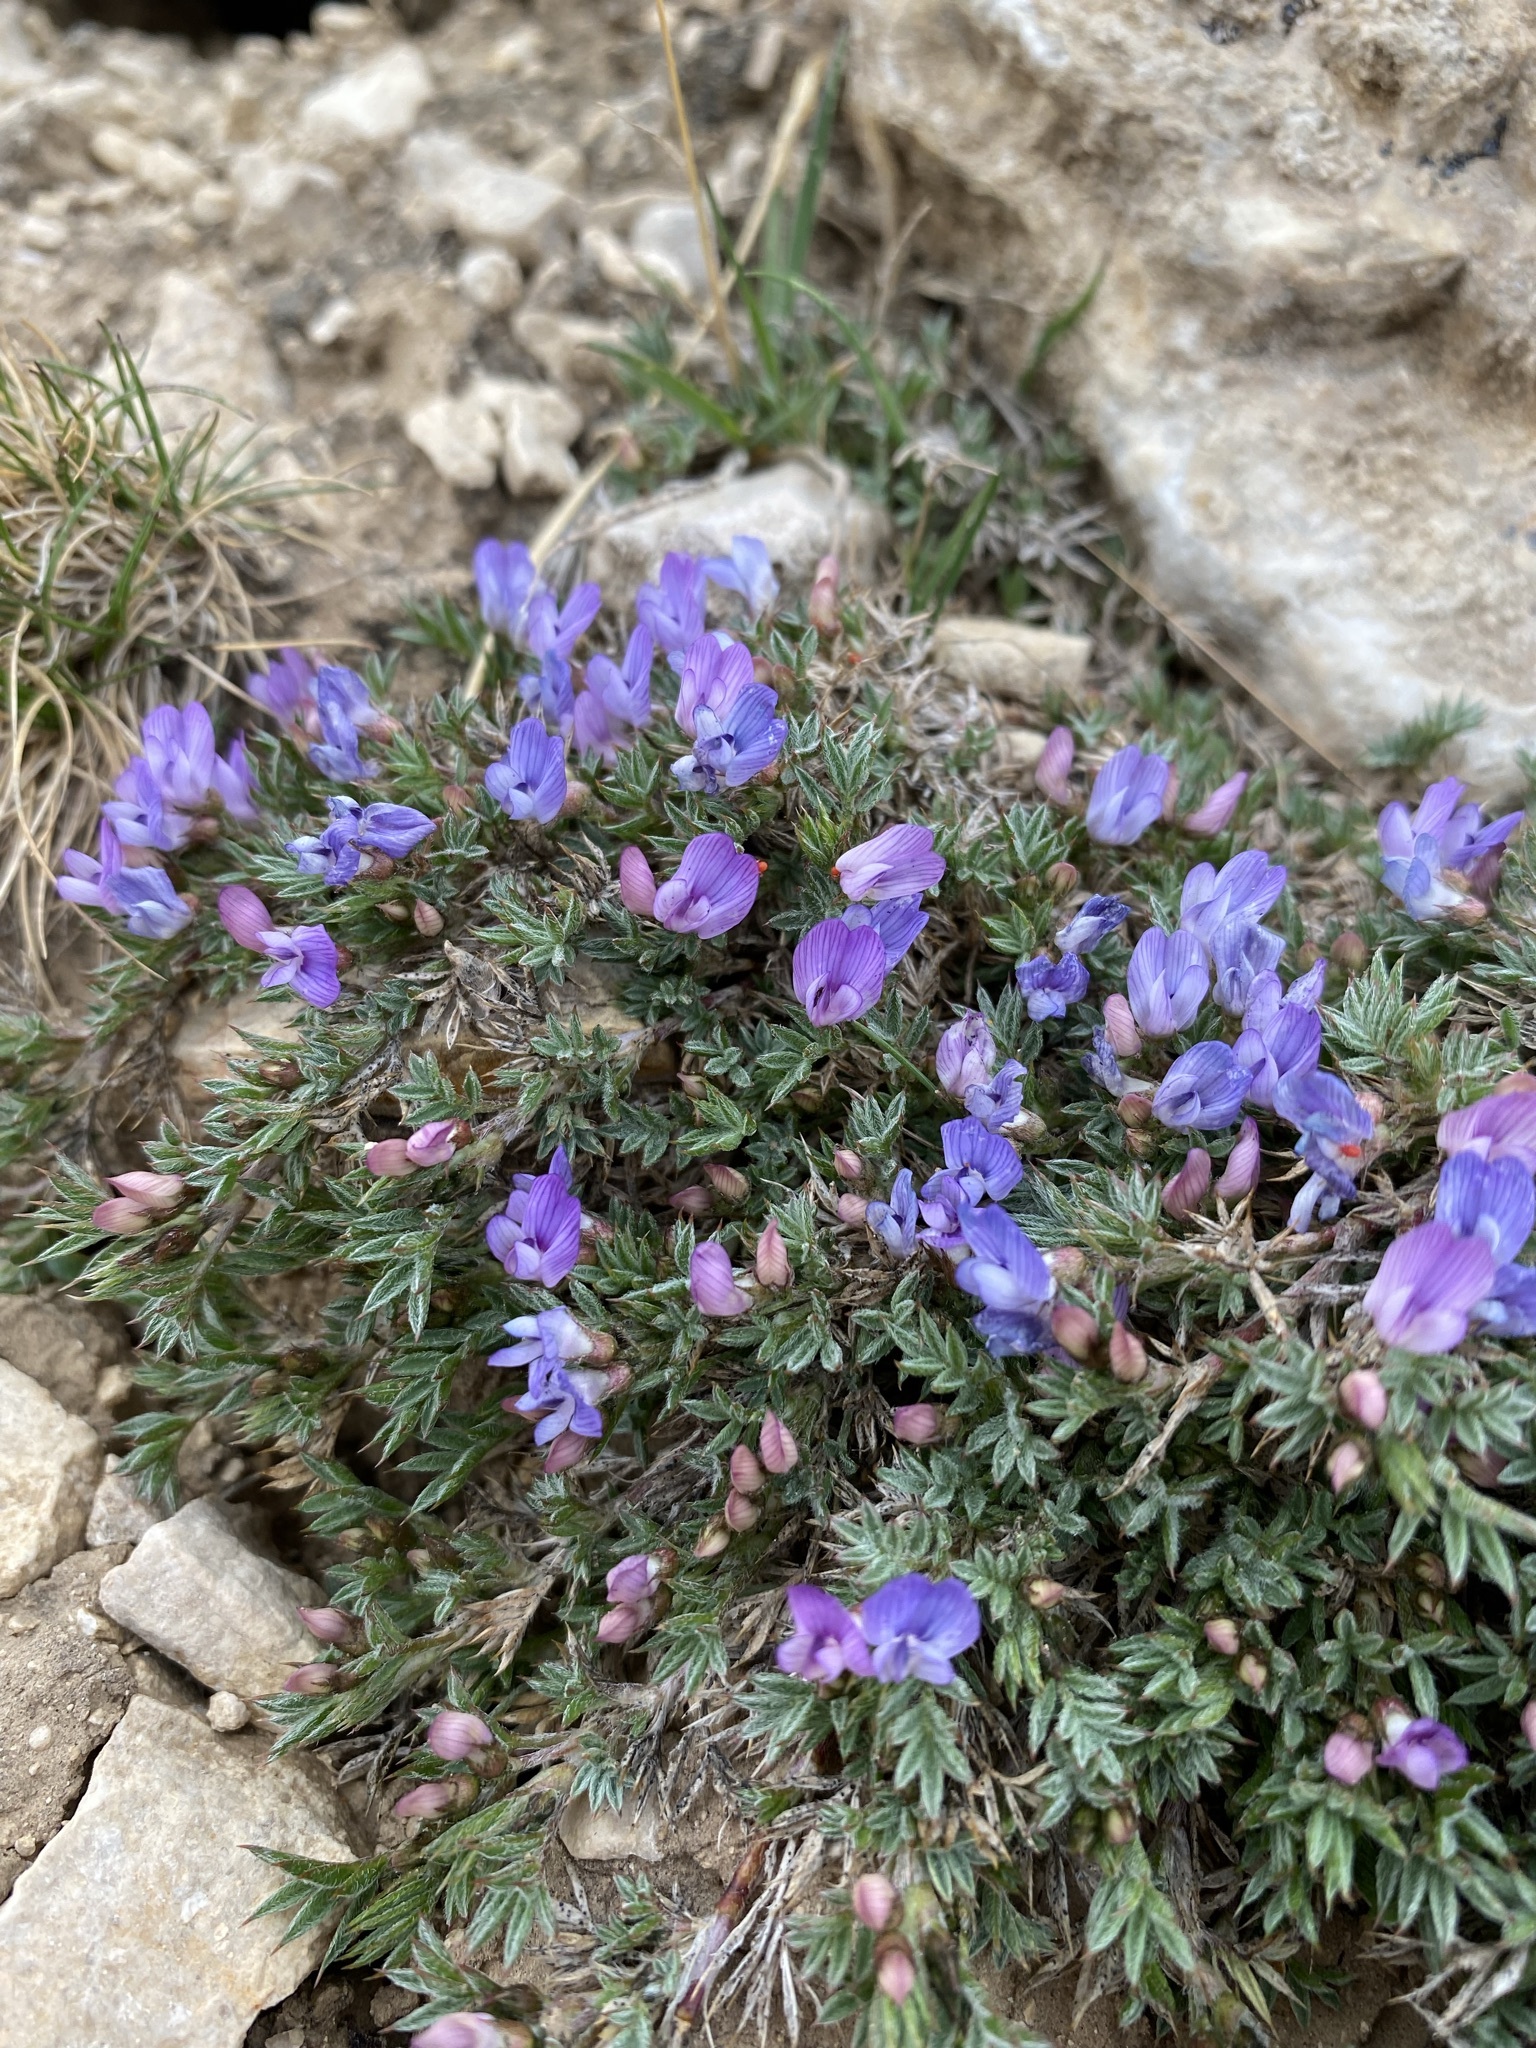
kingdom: Plantae
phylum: Tracheophyta
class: Magnoliopsida
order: Fabales
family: Fabaceae
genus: Astragalus
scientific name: Astragalus kentrophyta
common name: Prickly milk-vetch
